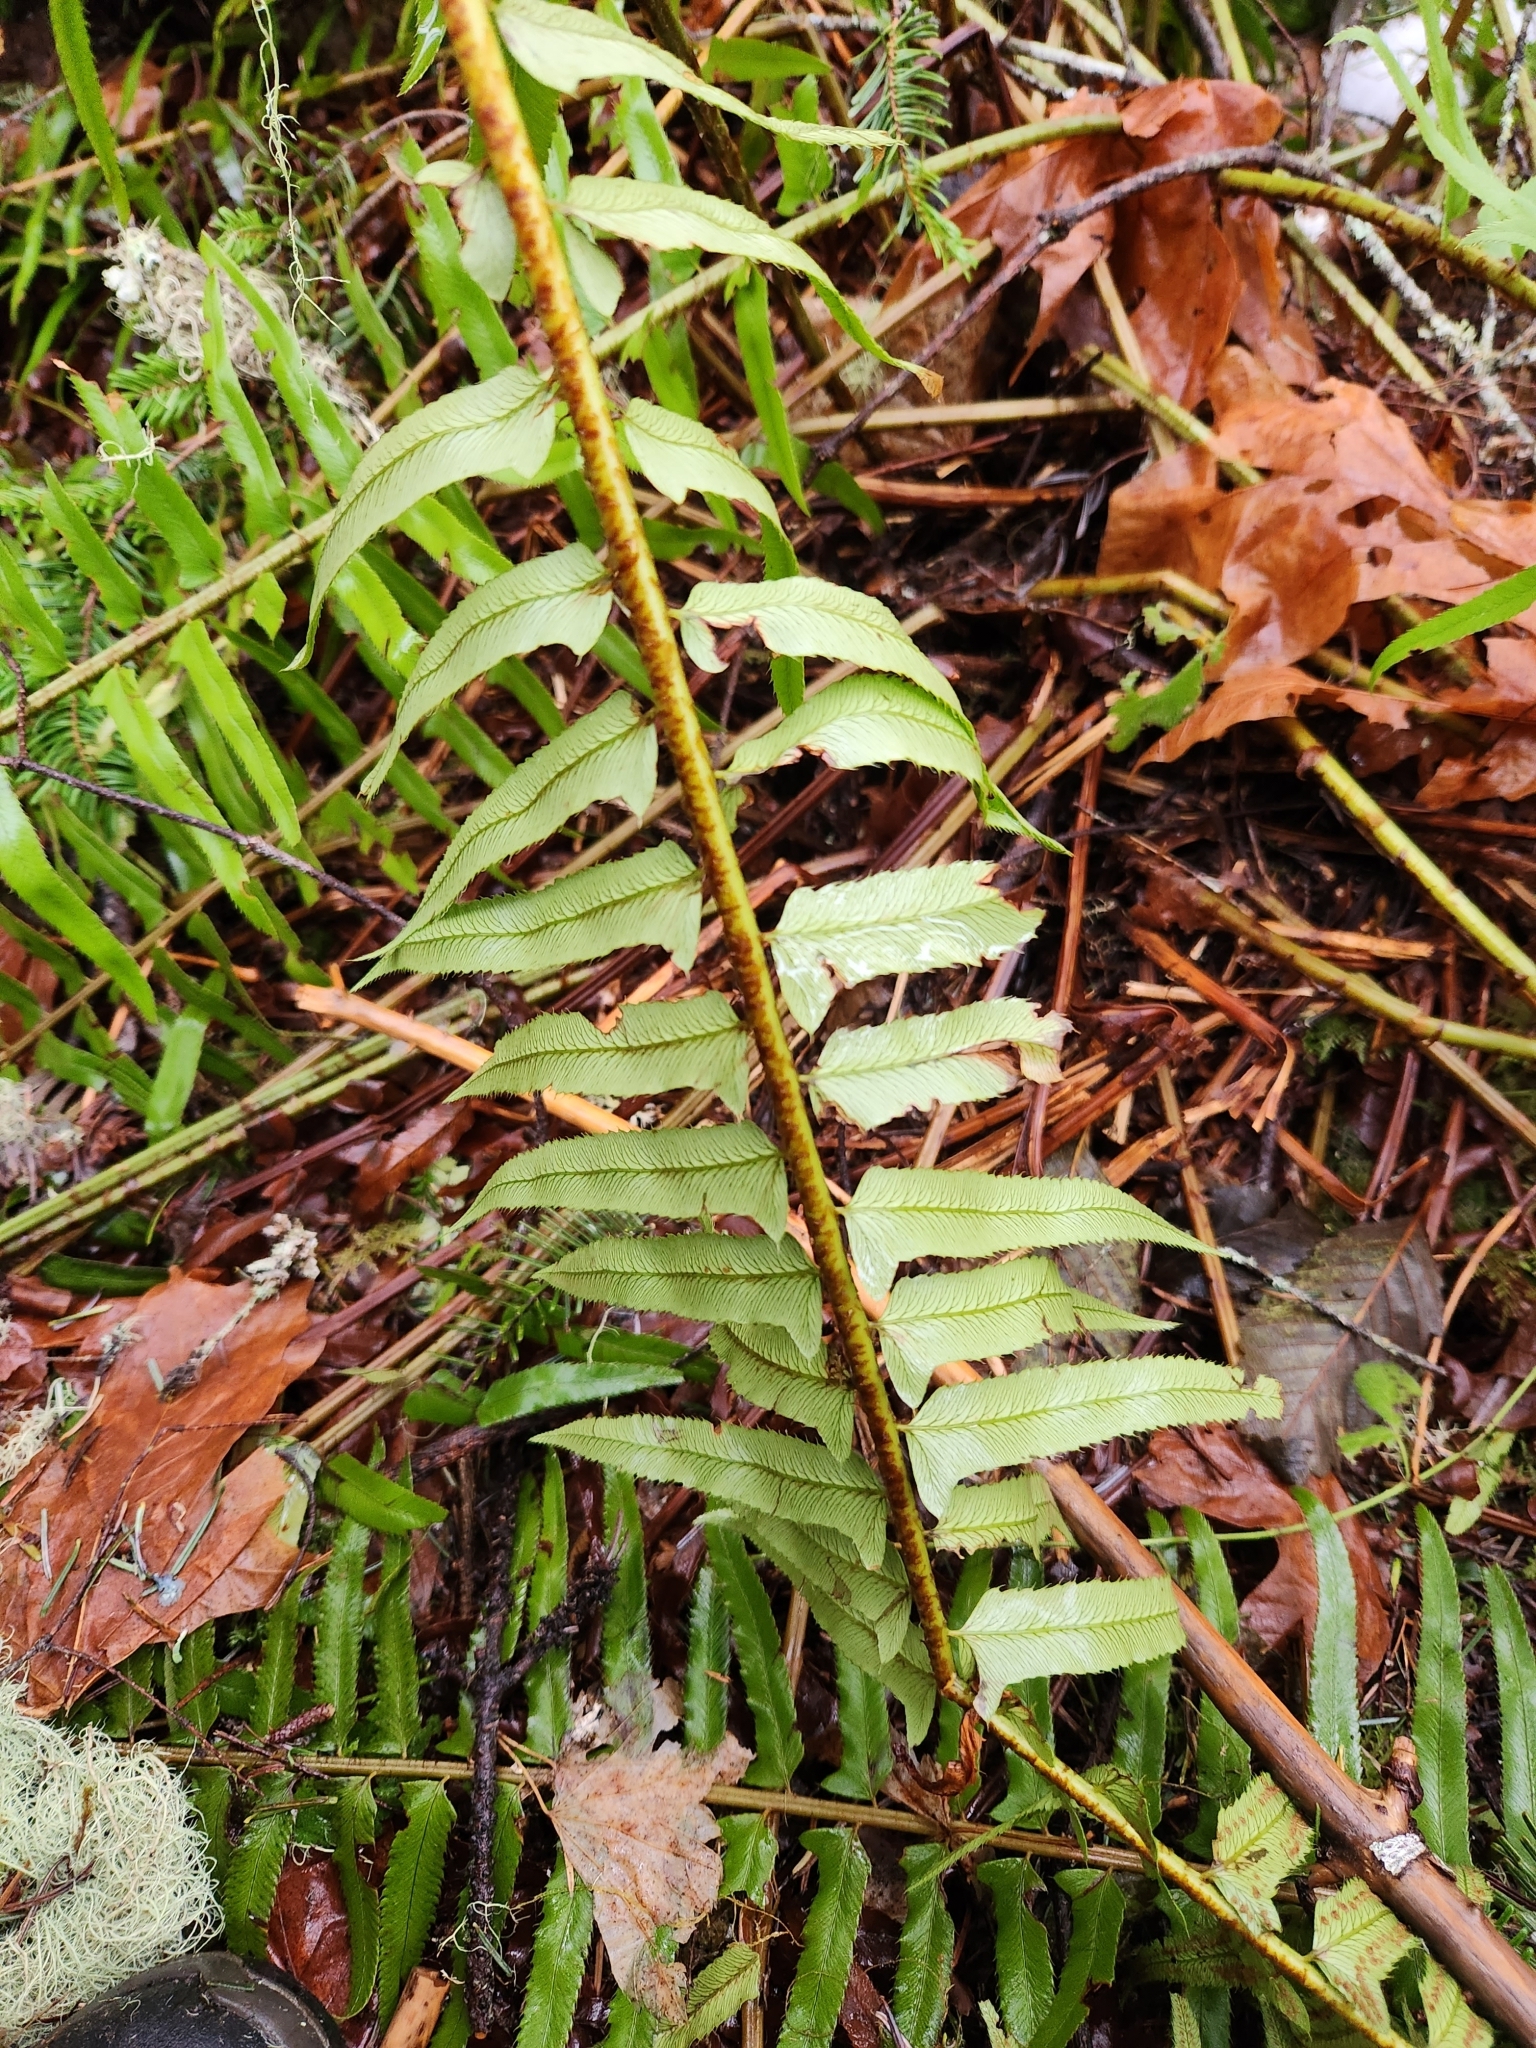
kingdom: Plantae
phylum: Tracheophyta
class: Polypodiopsida
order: Polypodiales
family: Dryopteridaceae
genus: Polystichum
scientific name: Polystichum munitum
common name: Western sword-fern
